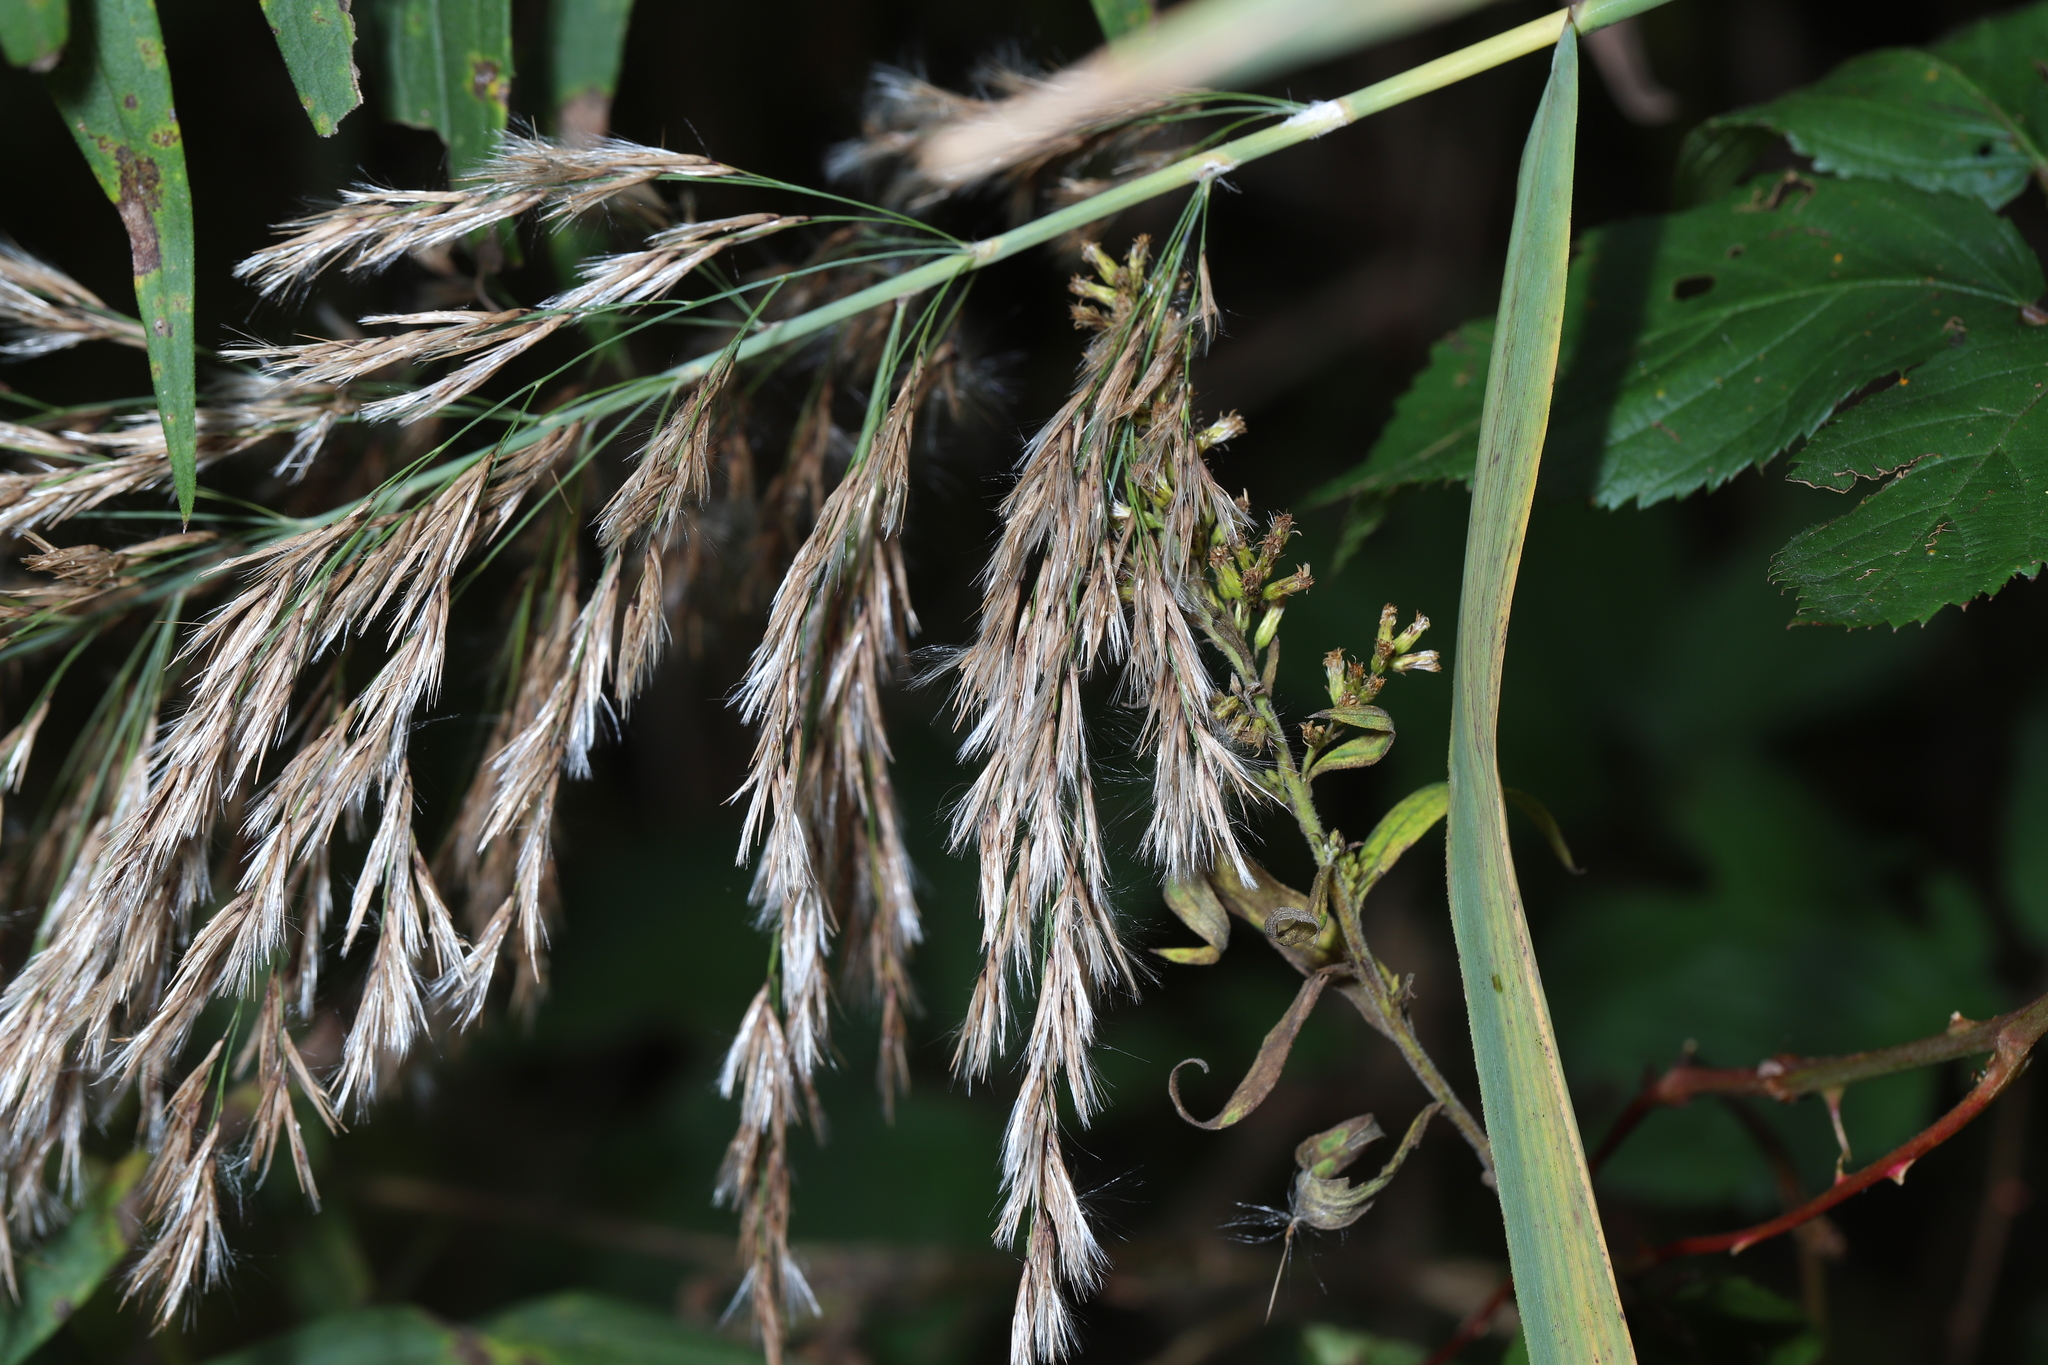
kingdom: Plantae
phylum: Tracheophyta
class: Liliopsida
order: Poales
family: Poaceae
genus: Phragmites
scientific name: Phragmites australis
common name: Common reed
